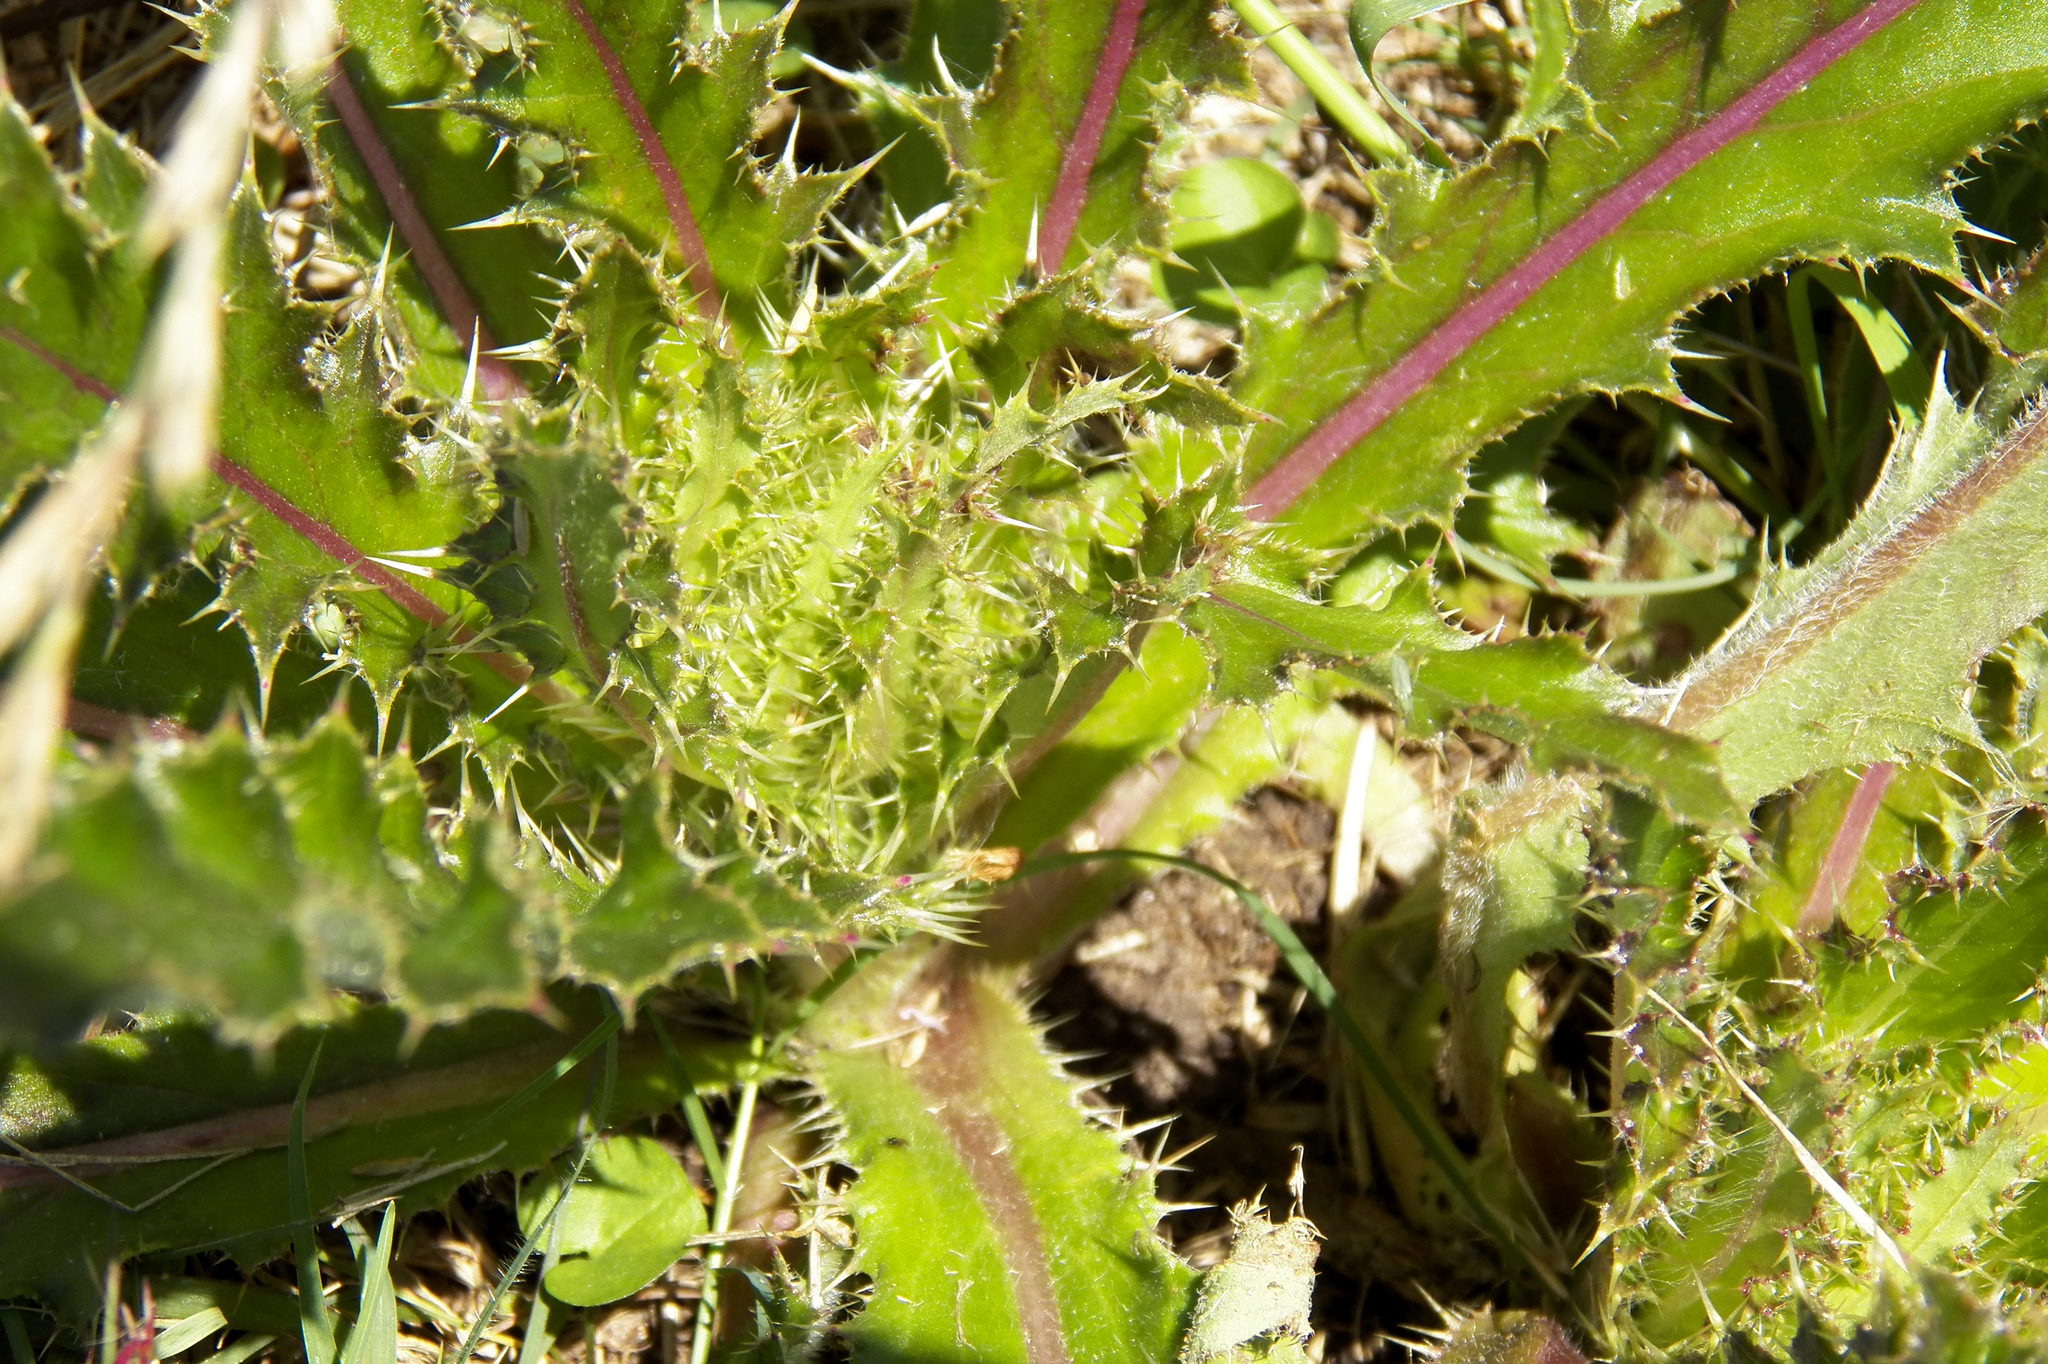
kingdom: Plantae
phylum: Tracheophyta
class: Magnoliopsida
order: Asterales
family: Asteraceae
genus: Cirsium
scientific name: Cirsium horridulum
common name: Bristly thistle
